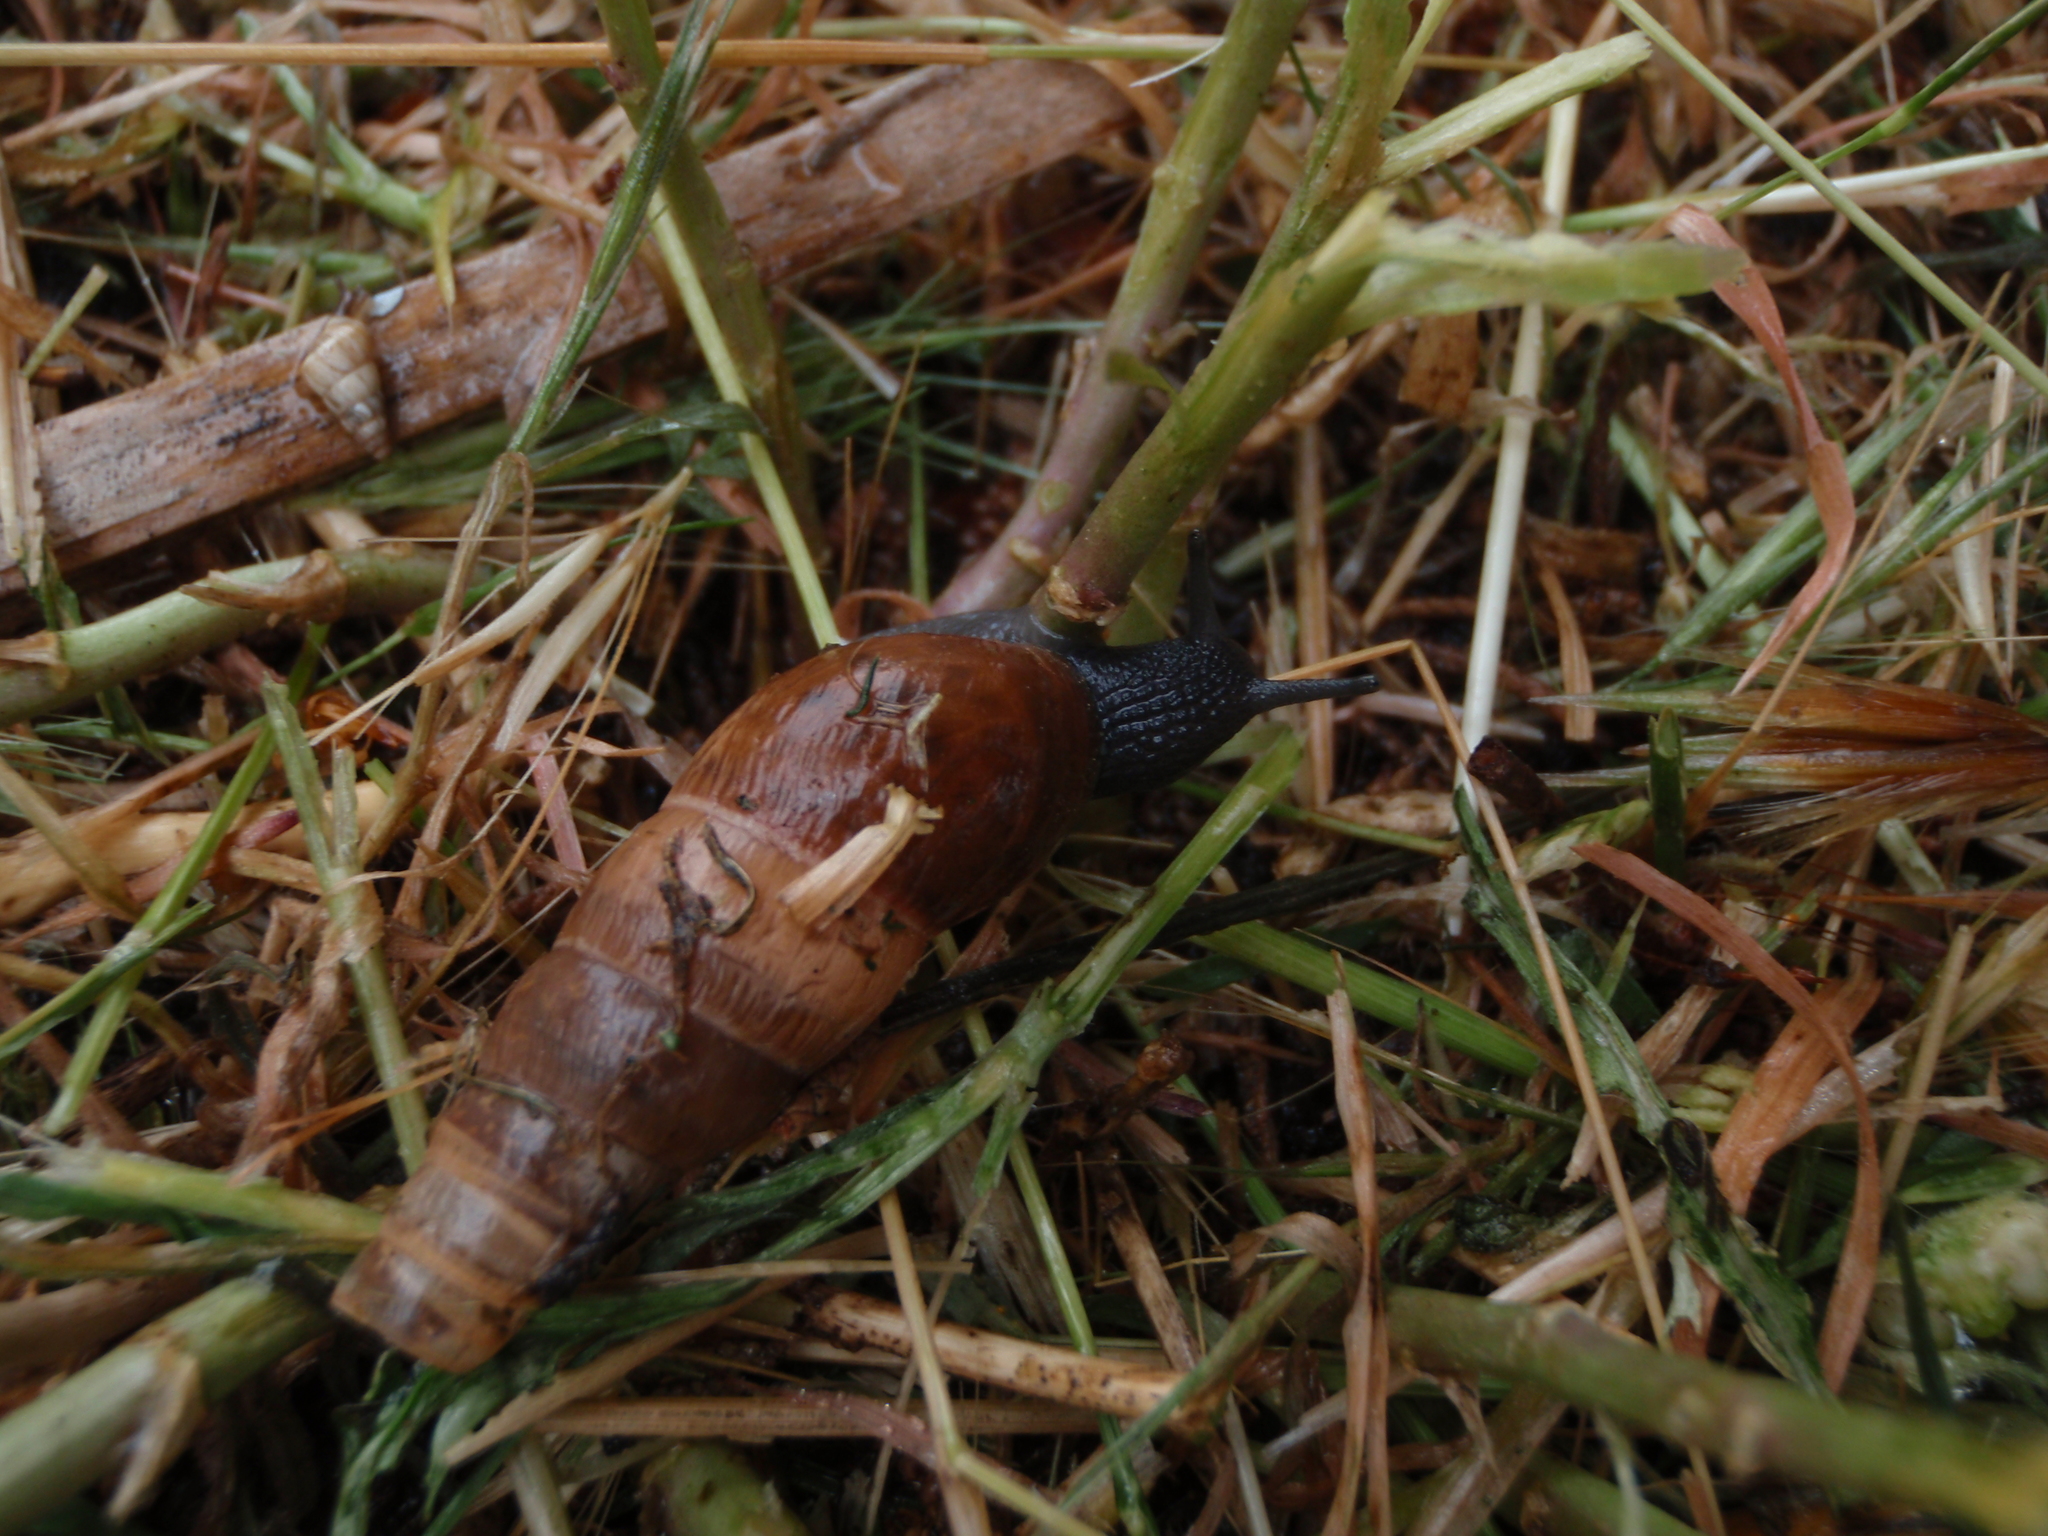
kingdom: Animalia
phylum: Mollusca
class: Gastropoda
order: Stylommatophora
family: Achatinidae
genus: Rumina
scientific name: Rumina decollata
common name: Decollate snail
